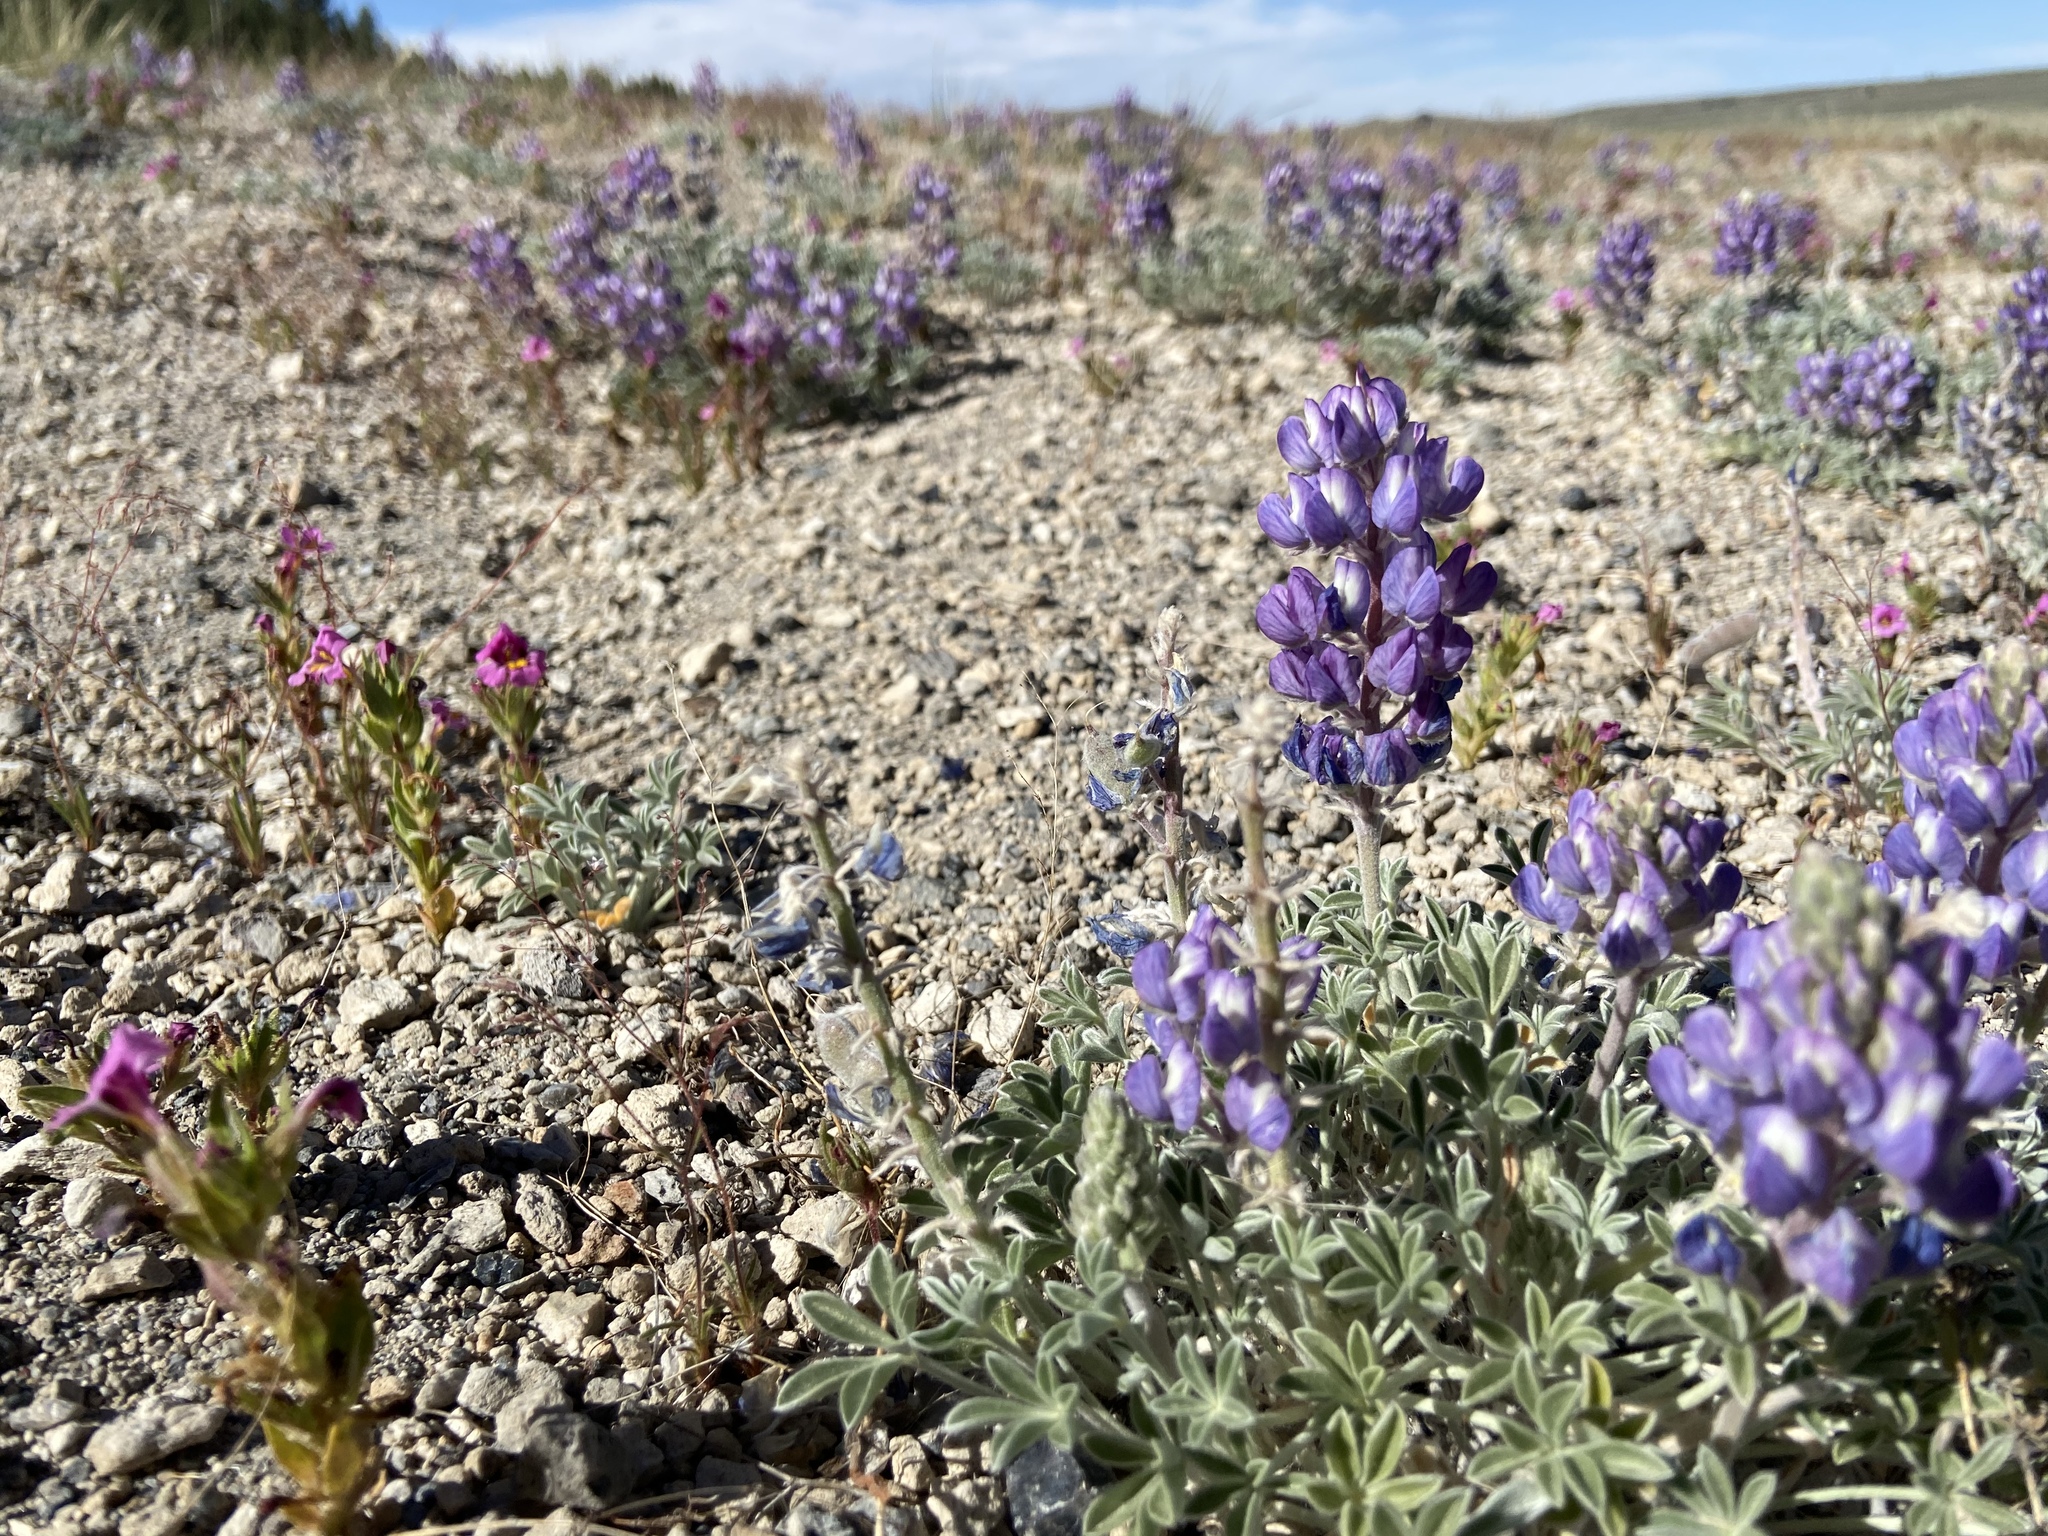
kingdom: Plantae
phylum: Tracheophyta
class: Magnoliopsida
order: Fabales
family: Fabaceae
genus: Lupinus
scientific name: Lupinus duranii
